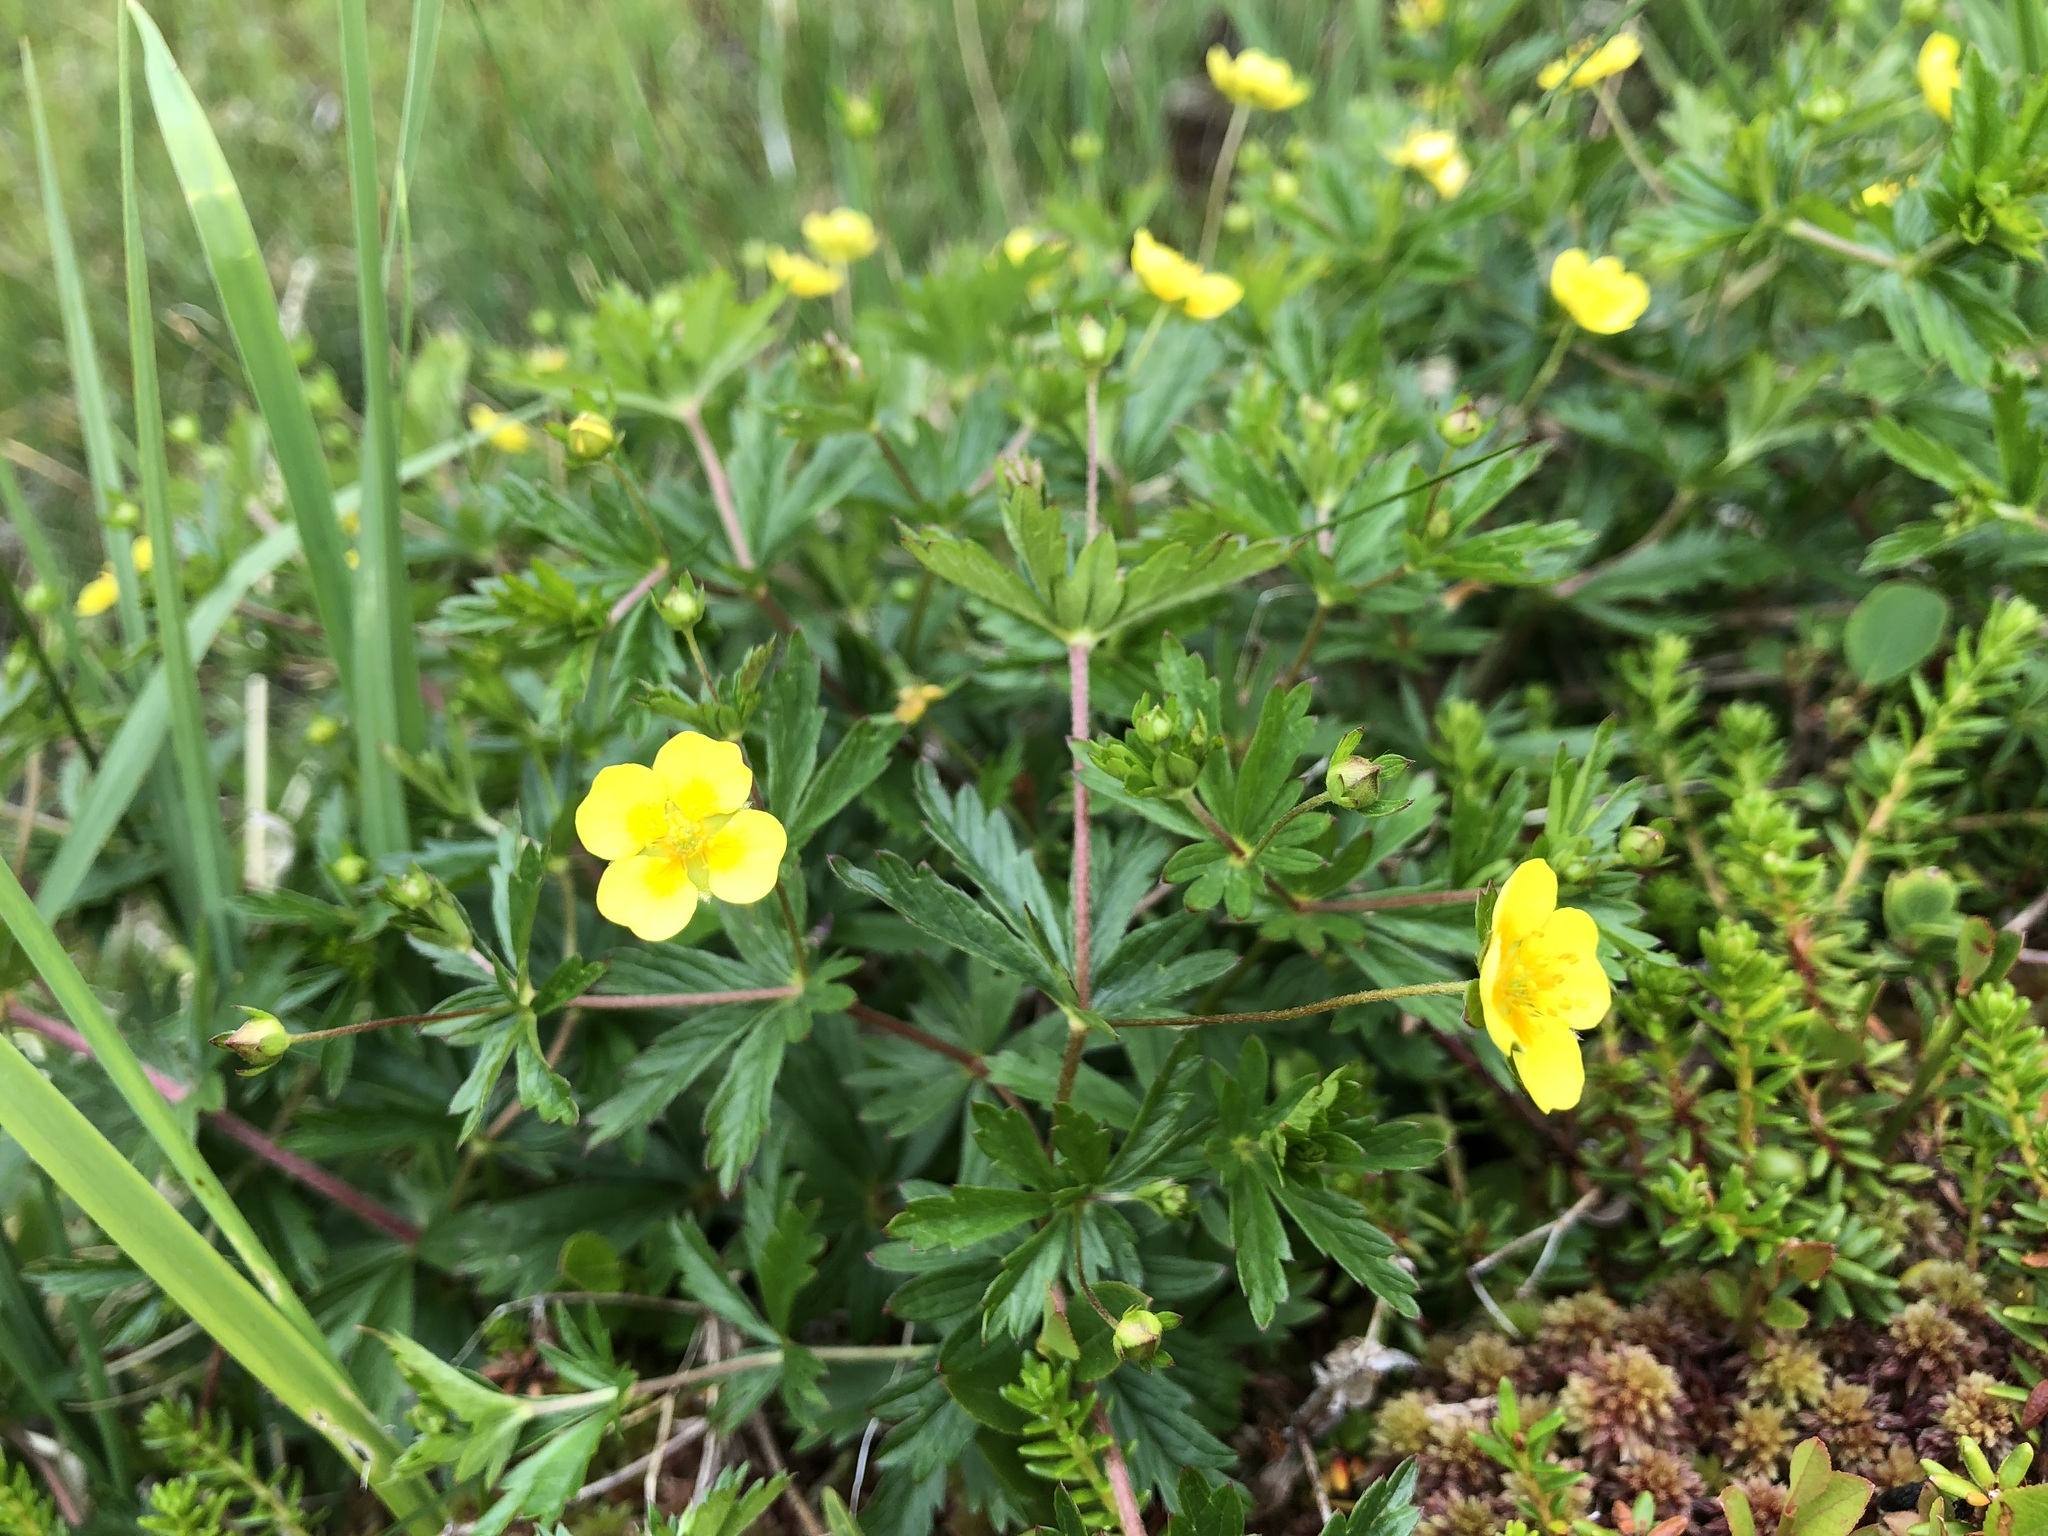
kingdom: Plantae
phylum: Tracheophyta
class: Magnoliopsida
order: Rosales
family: Rosaceae
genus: Potentilla
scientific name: Potentilla erecta
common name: Tormentil
